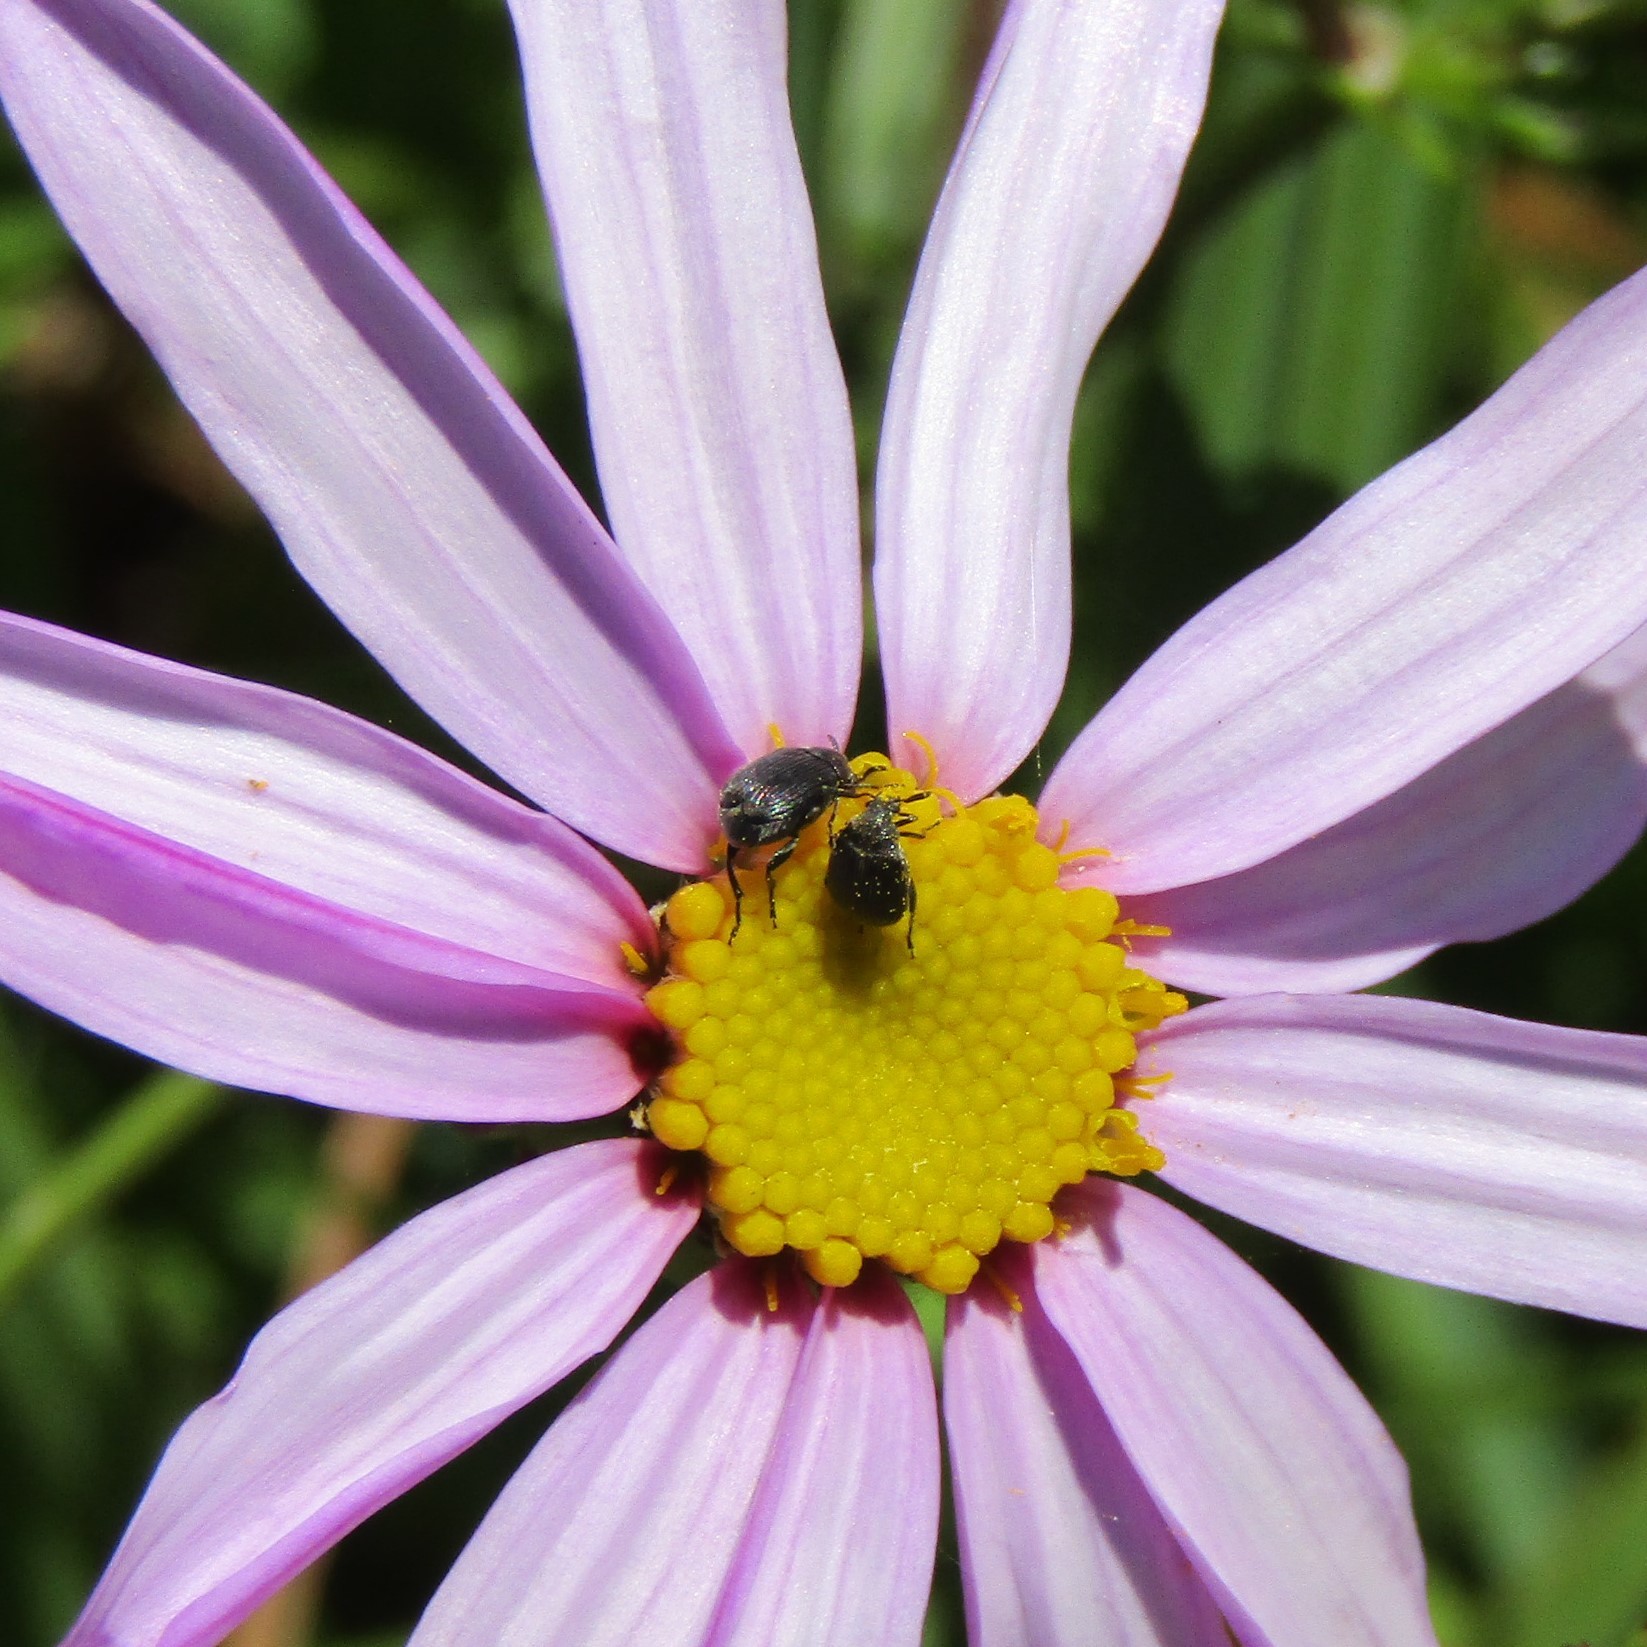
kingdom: Animalia
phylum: Arthropoda
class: Insecta
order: Coleoptera
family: Chrysomelidae
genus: Bruchidius
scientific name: Bruchidius villosus
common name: Scotch broom bruchid
